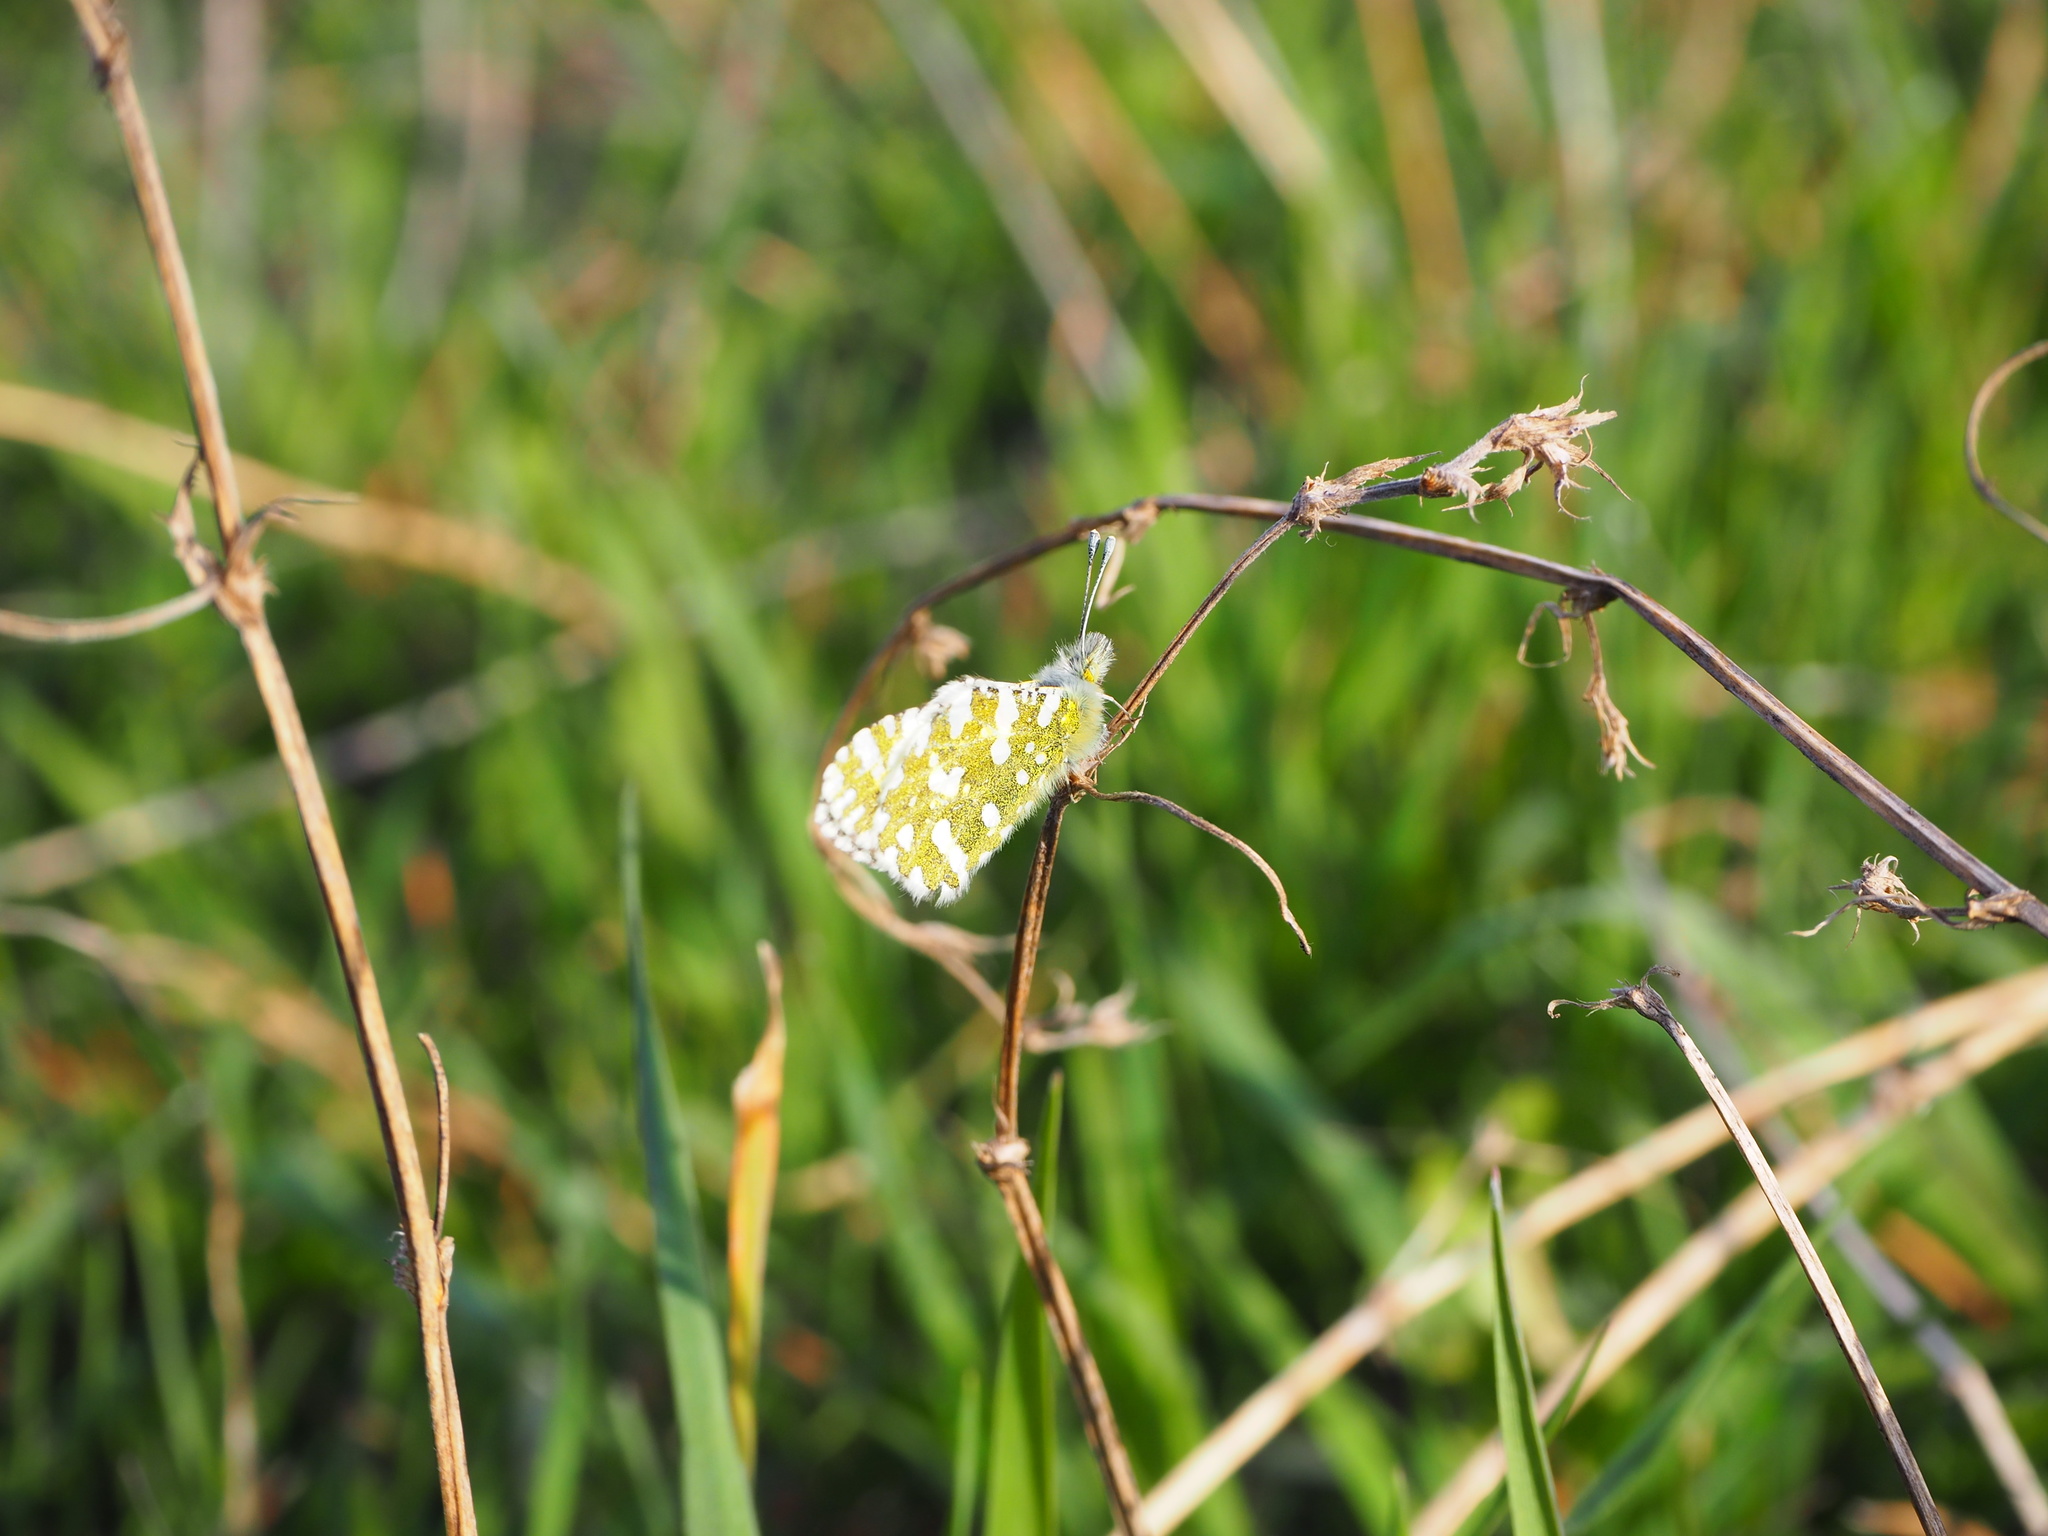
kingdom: Animalia
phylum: Arthropoda
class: Insecta
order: Lepidoptera
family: Pieridae
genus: Euchloe
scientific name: Euchloe ausonia
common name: Eastern dappled white
